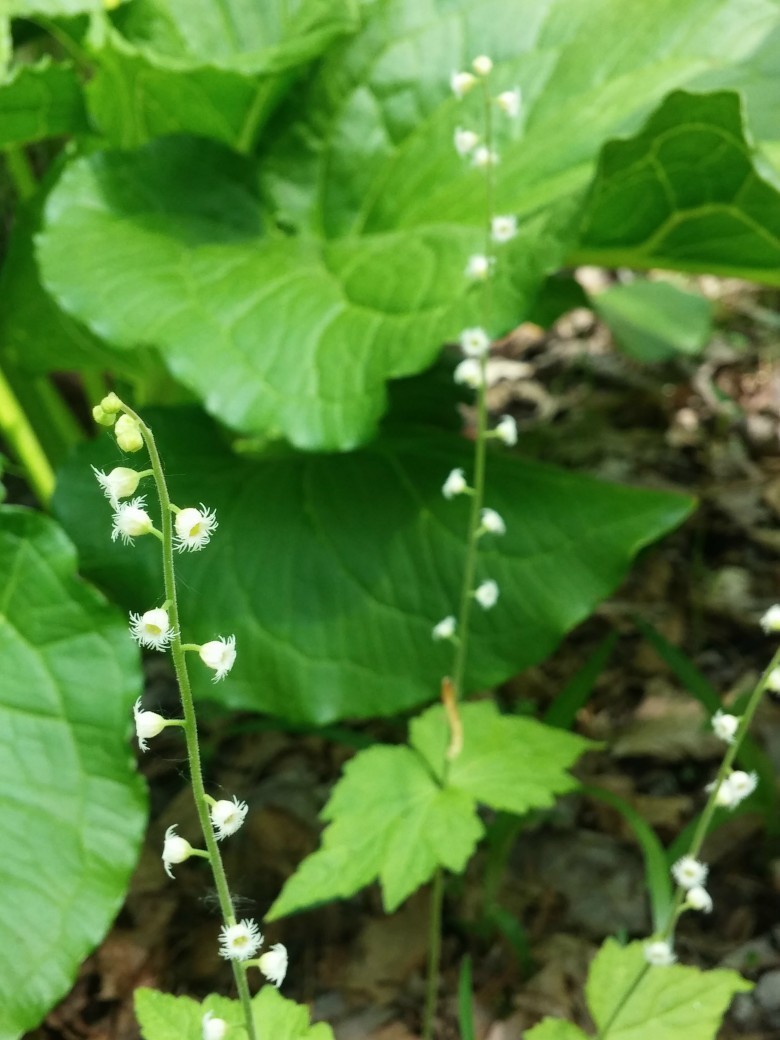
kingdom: Plantae
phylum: Tracheophyta
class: Magnoliopsida
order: Saxifragales
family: Saxifragaceae
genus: Mitella
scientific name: Mitella diphylla
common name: Coolwort
